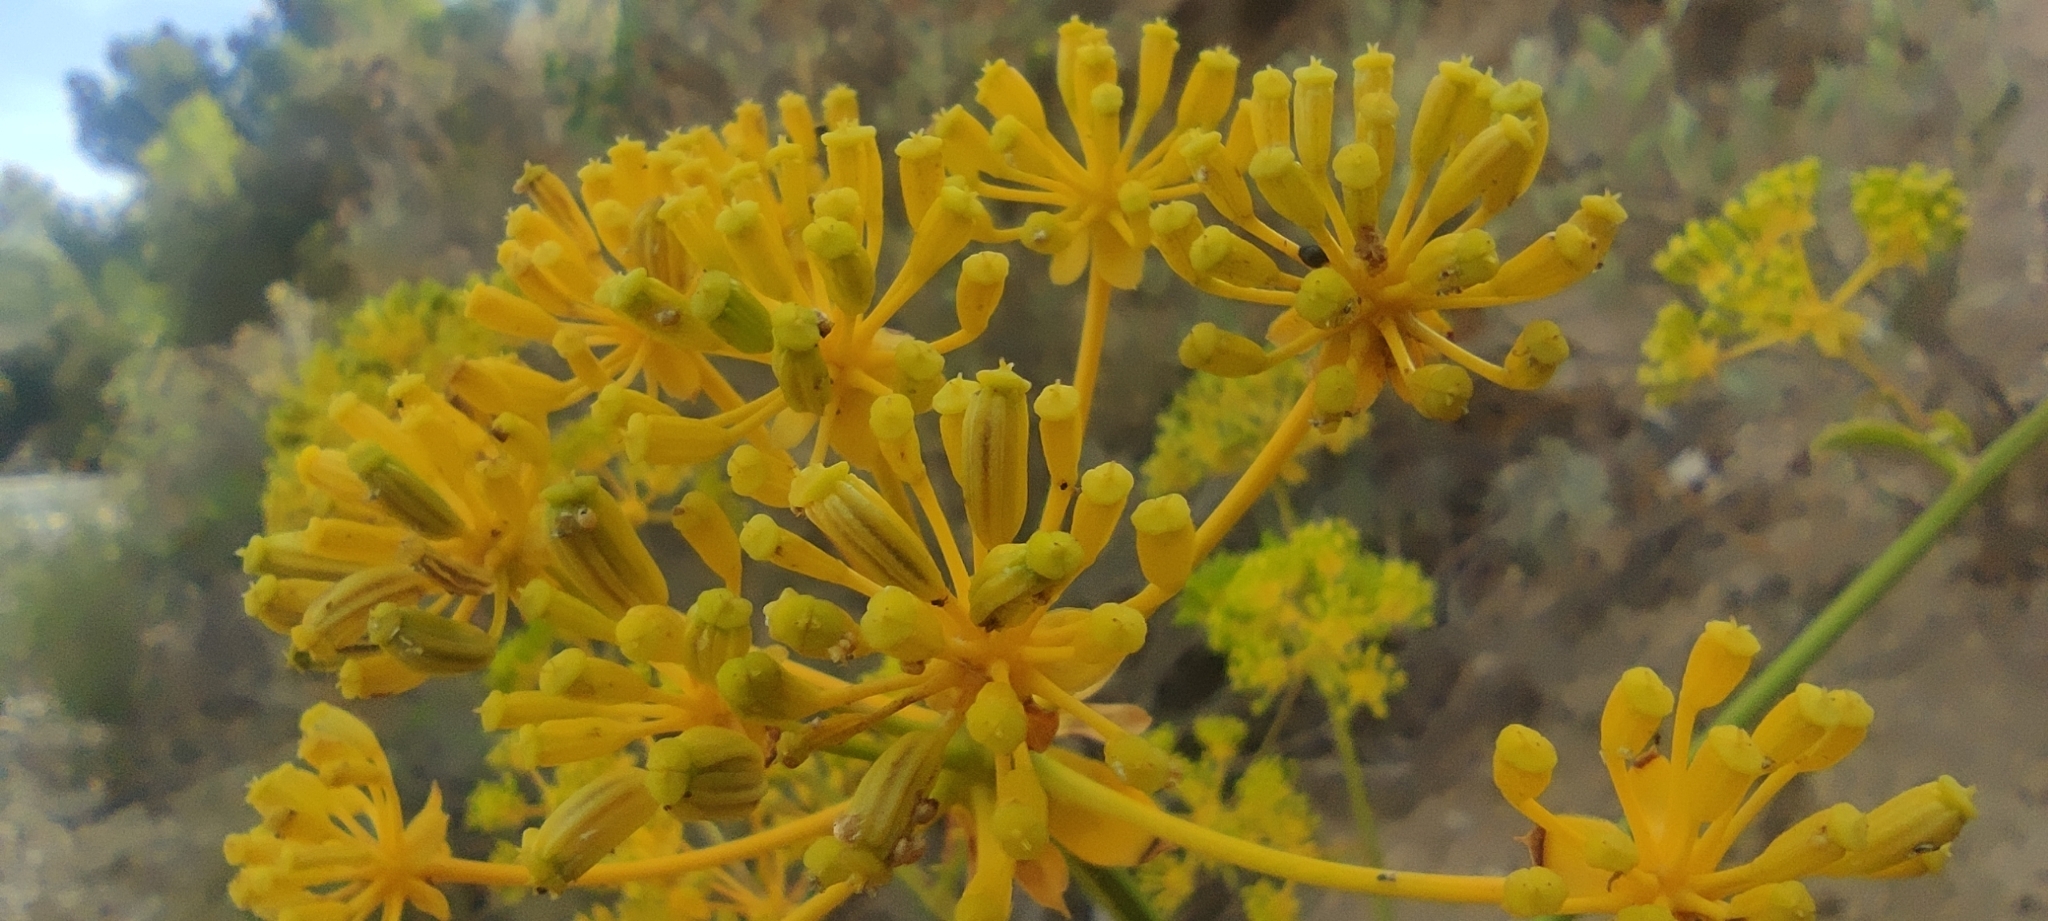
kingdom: Plantae
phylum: Tracheophyta
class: Magnoliopsida
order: Apiales
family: Apiaceae
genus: Bupleurum
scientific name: Bupleurum gibraltaricum
